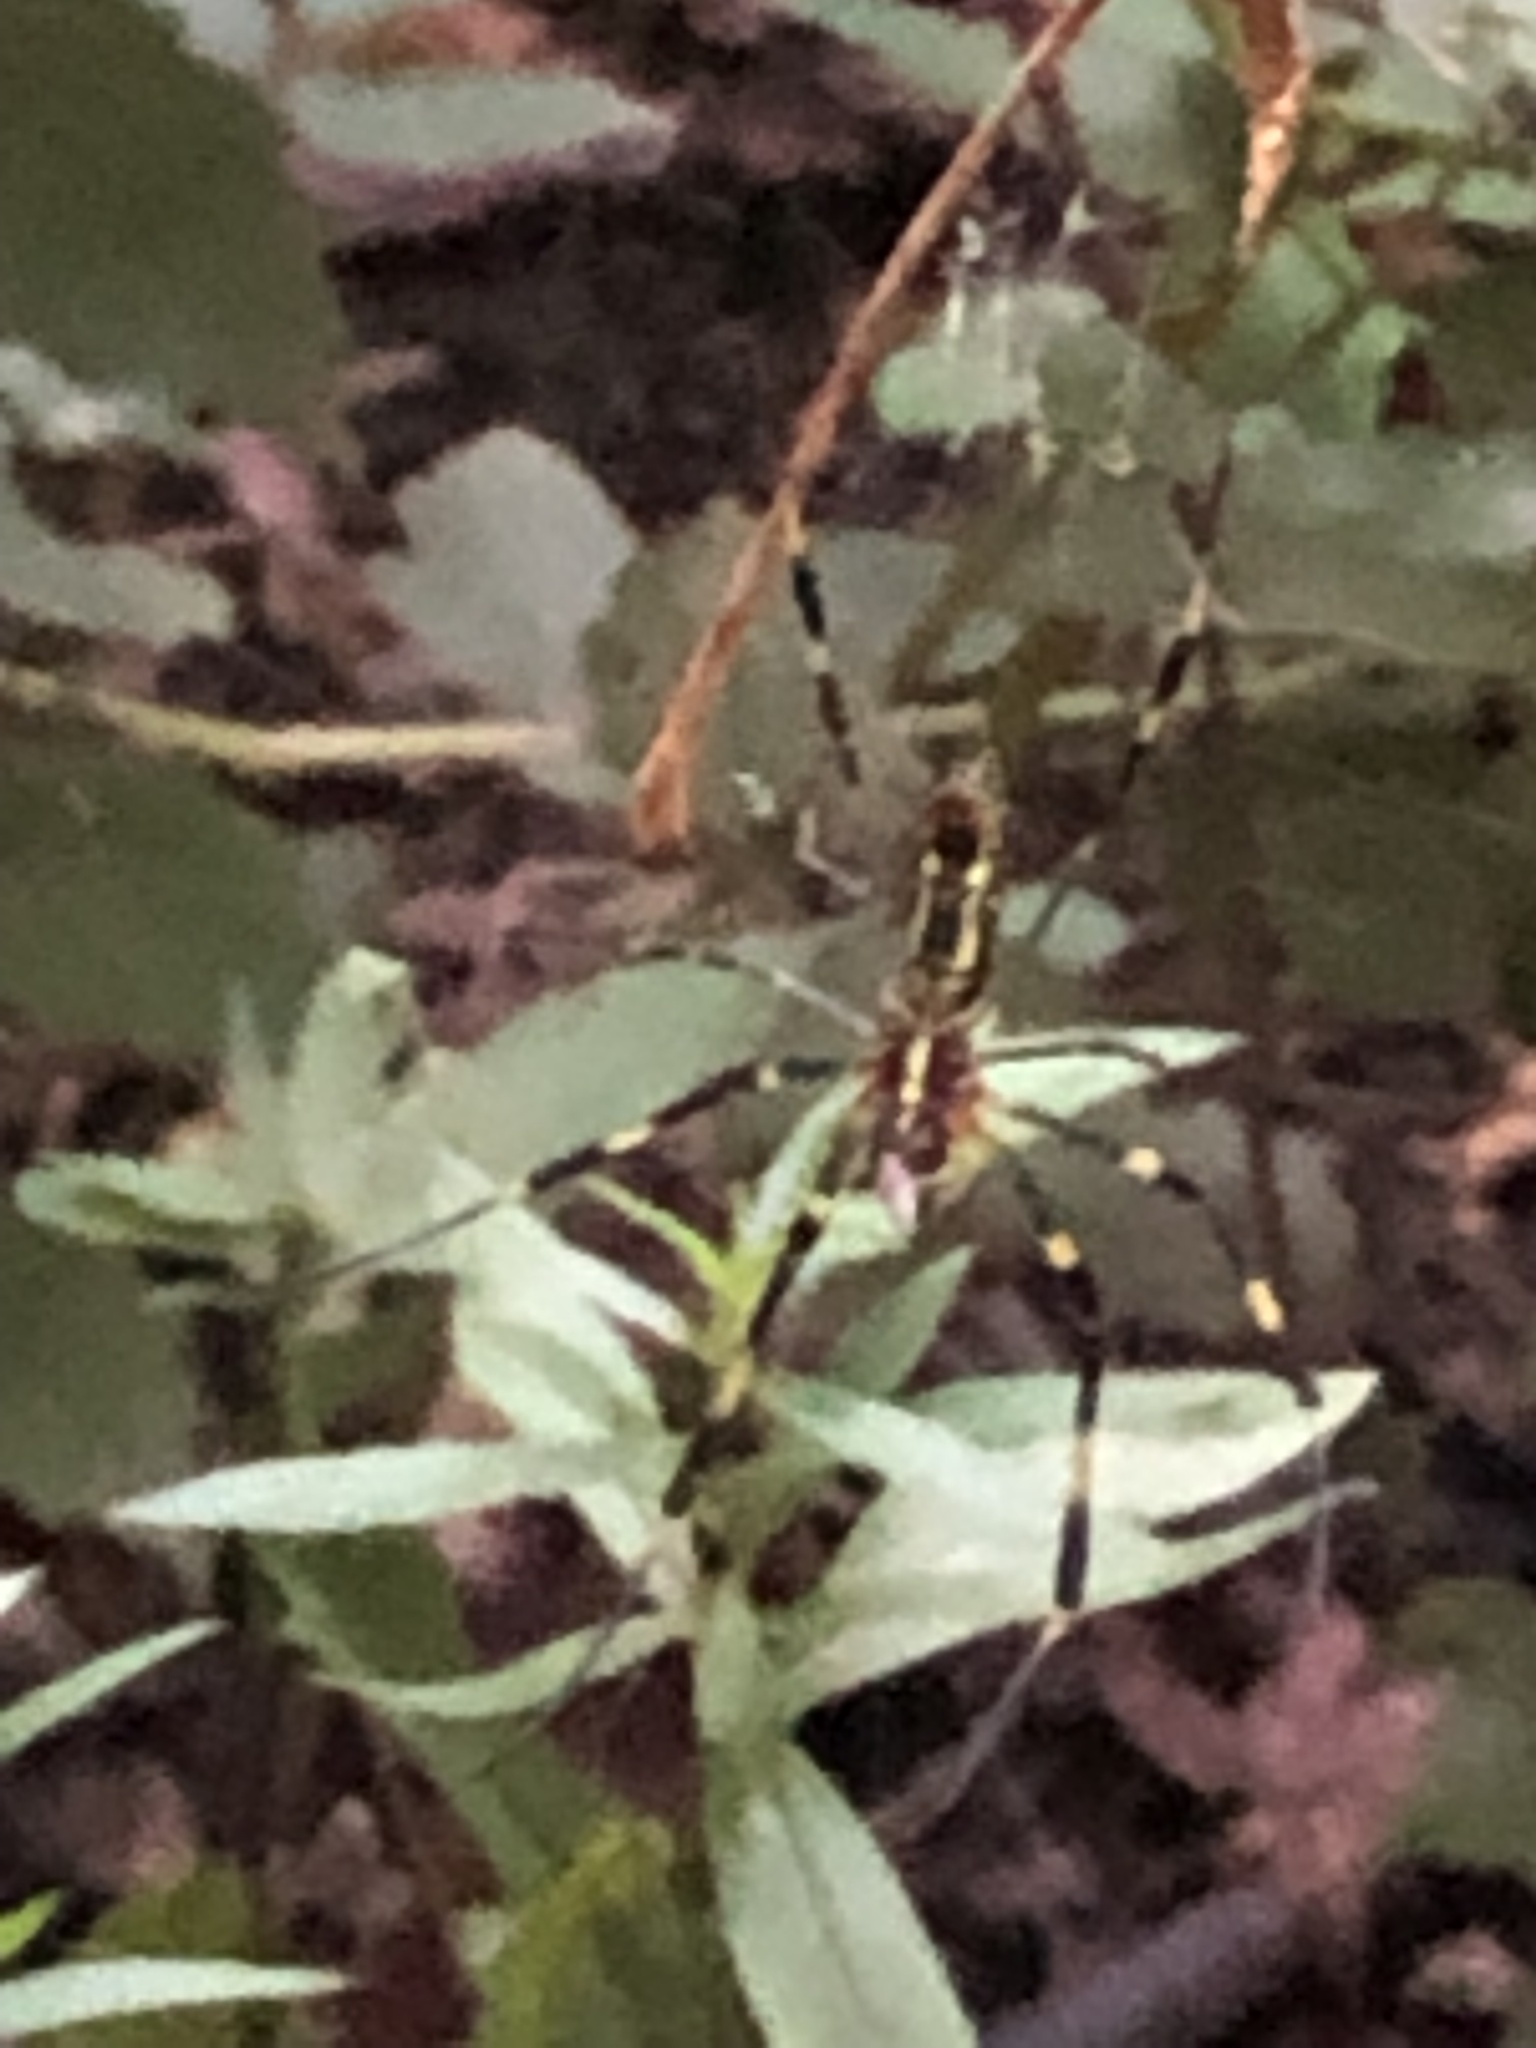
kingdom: Animalia
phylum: Arthropoda
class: Arachnida
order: Araneae
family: Araneidae
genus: Trichonephila
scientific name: Trichonephila clavata
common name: Jorō spider
